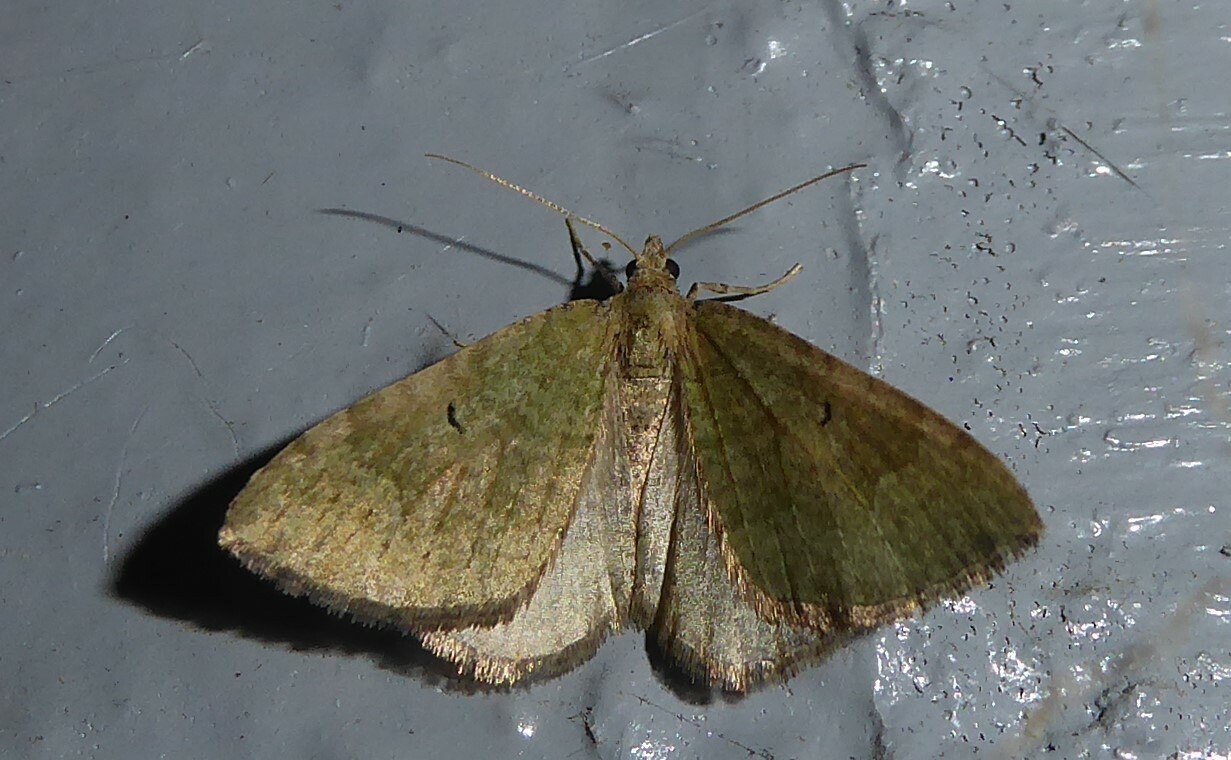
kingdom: Animalia
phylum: Arthropoda
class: Insecta
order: Lepidoptera
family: Geometridae
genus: Epyaxa
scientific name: Epyaxa rosearia
